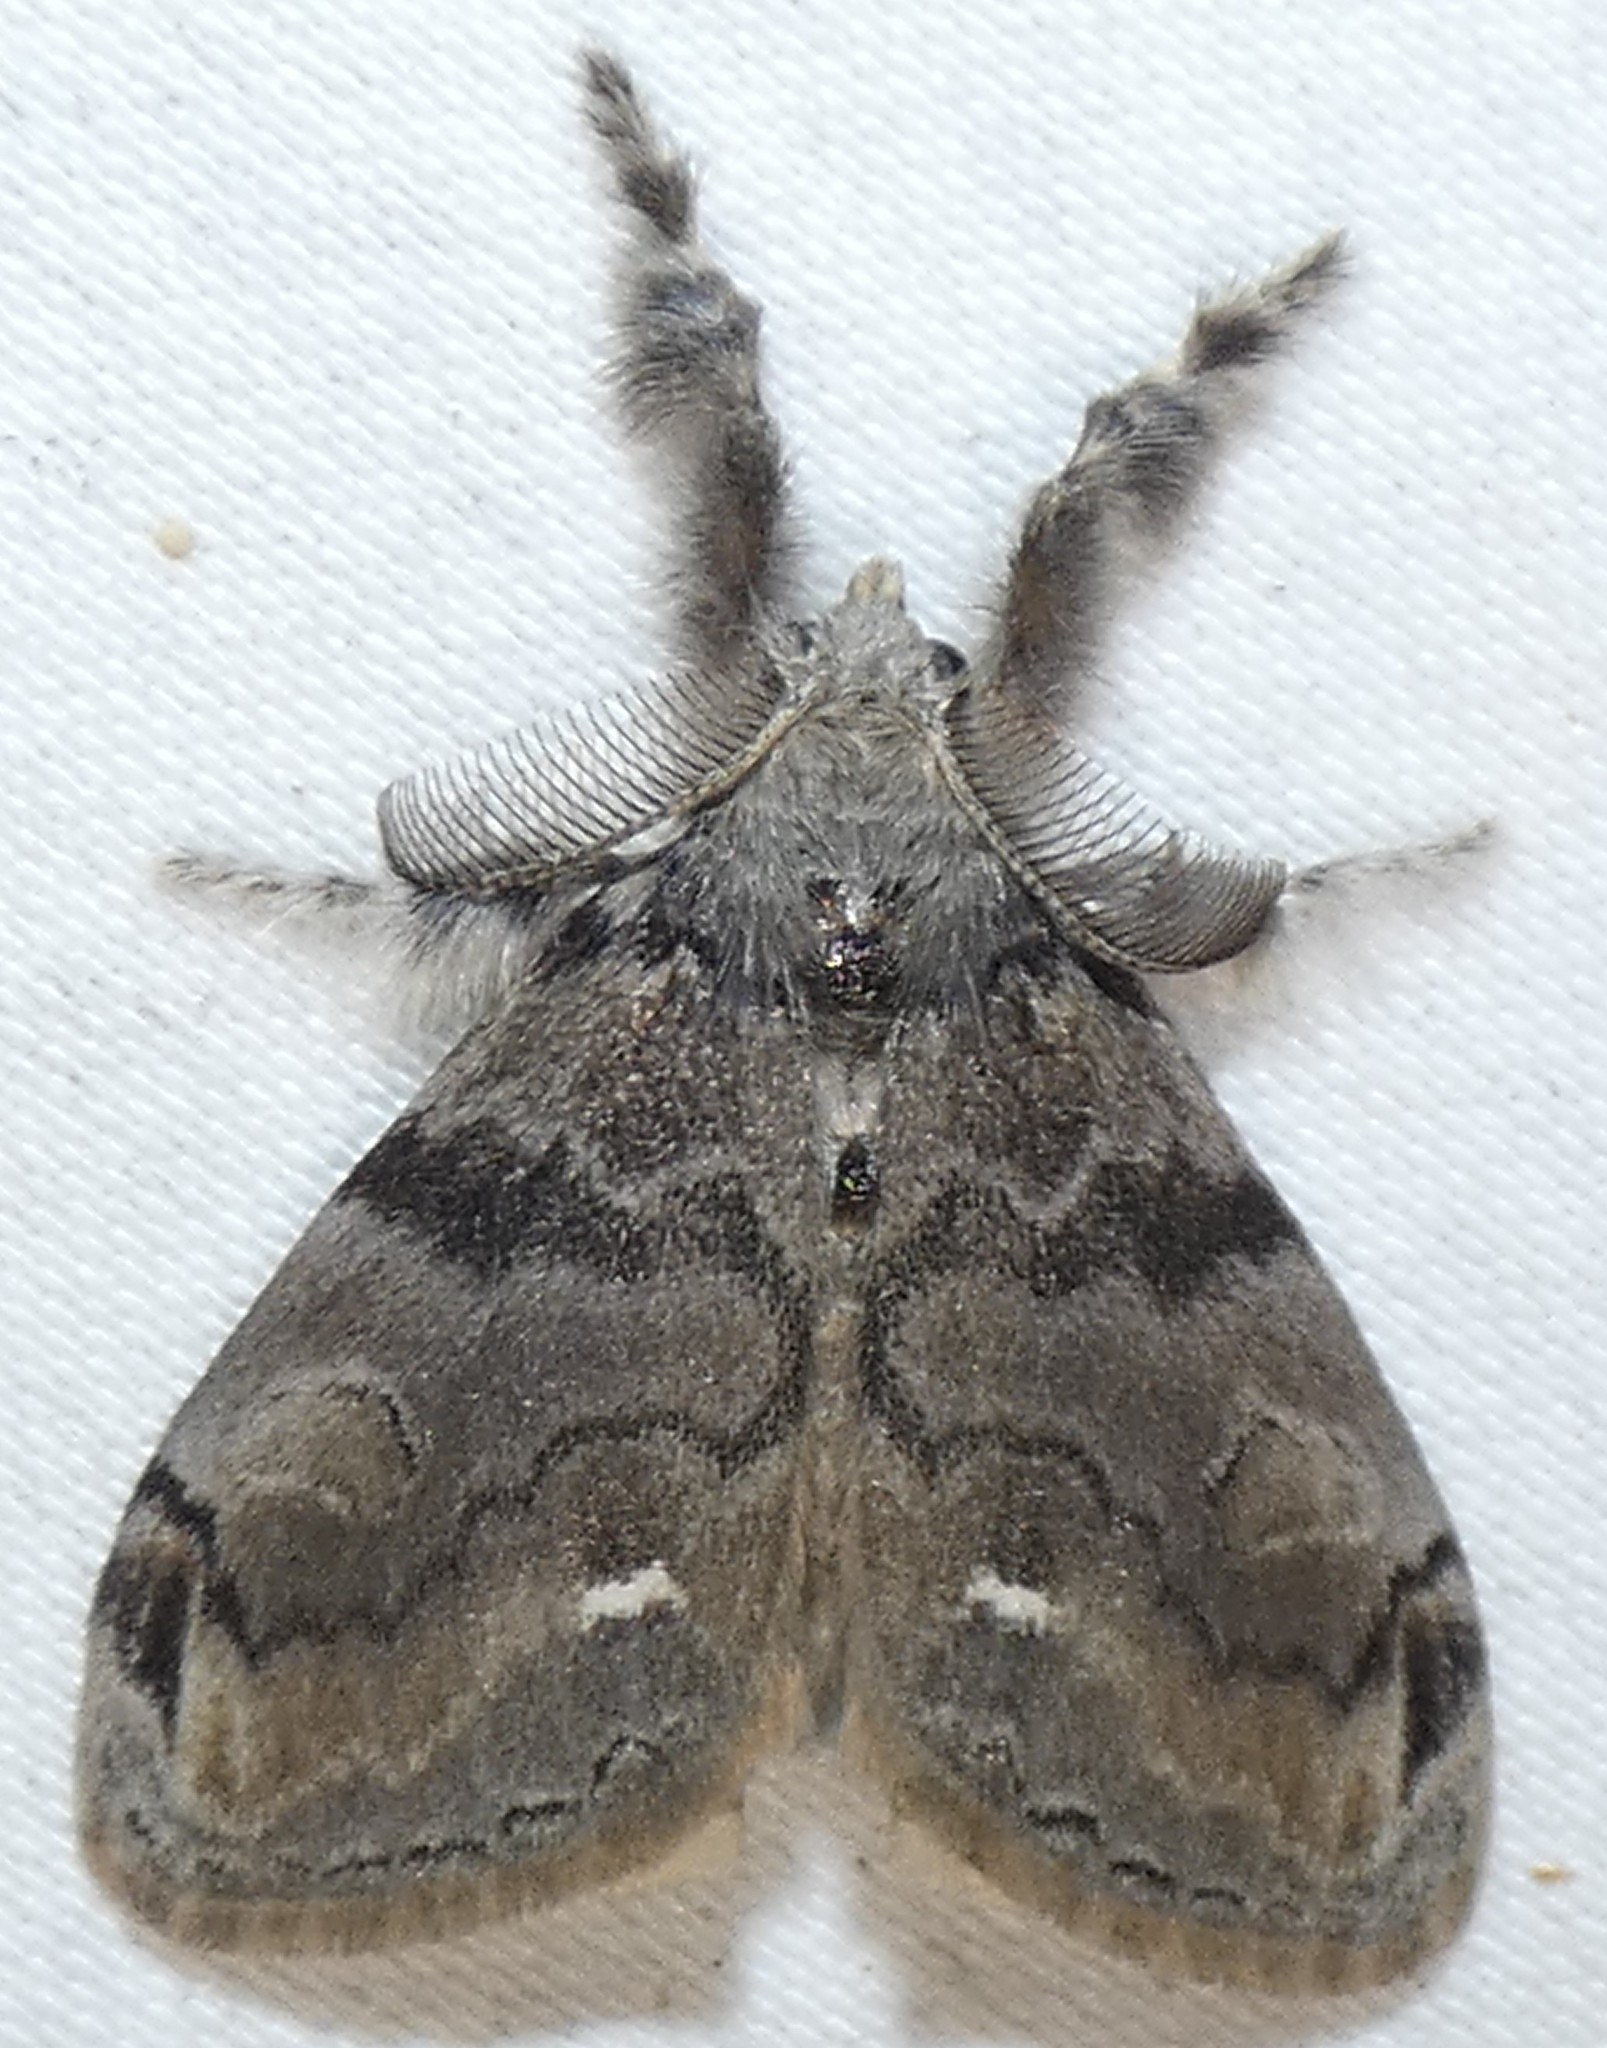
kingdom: Animalia
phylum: Arthropoda
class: Insecta
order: Lepidoptera
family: Erebidae
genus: Orgyia
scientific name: Orgyia leucostigma
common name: White-marked tussock moth
